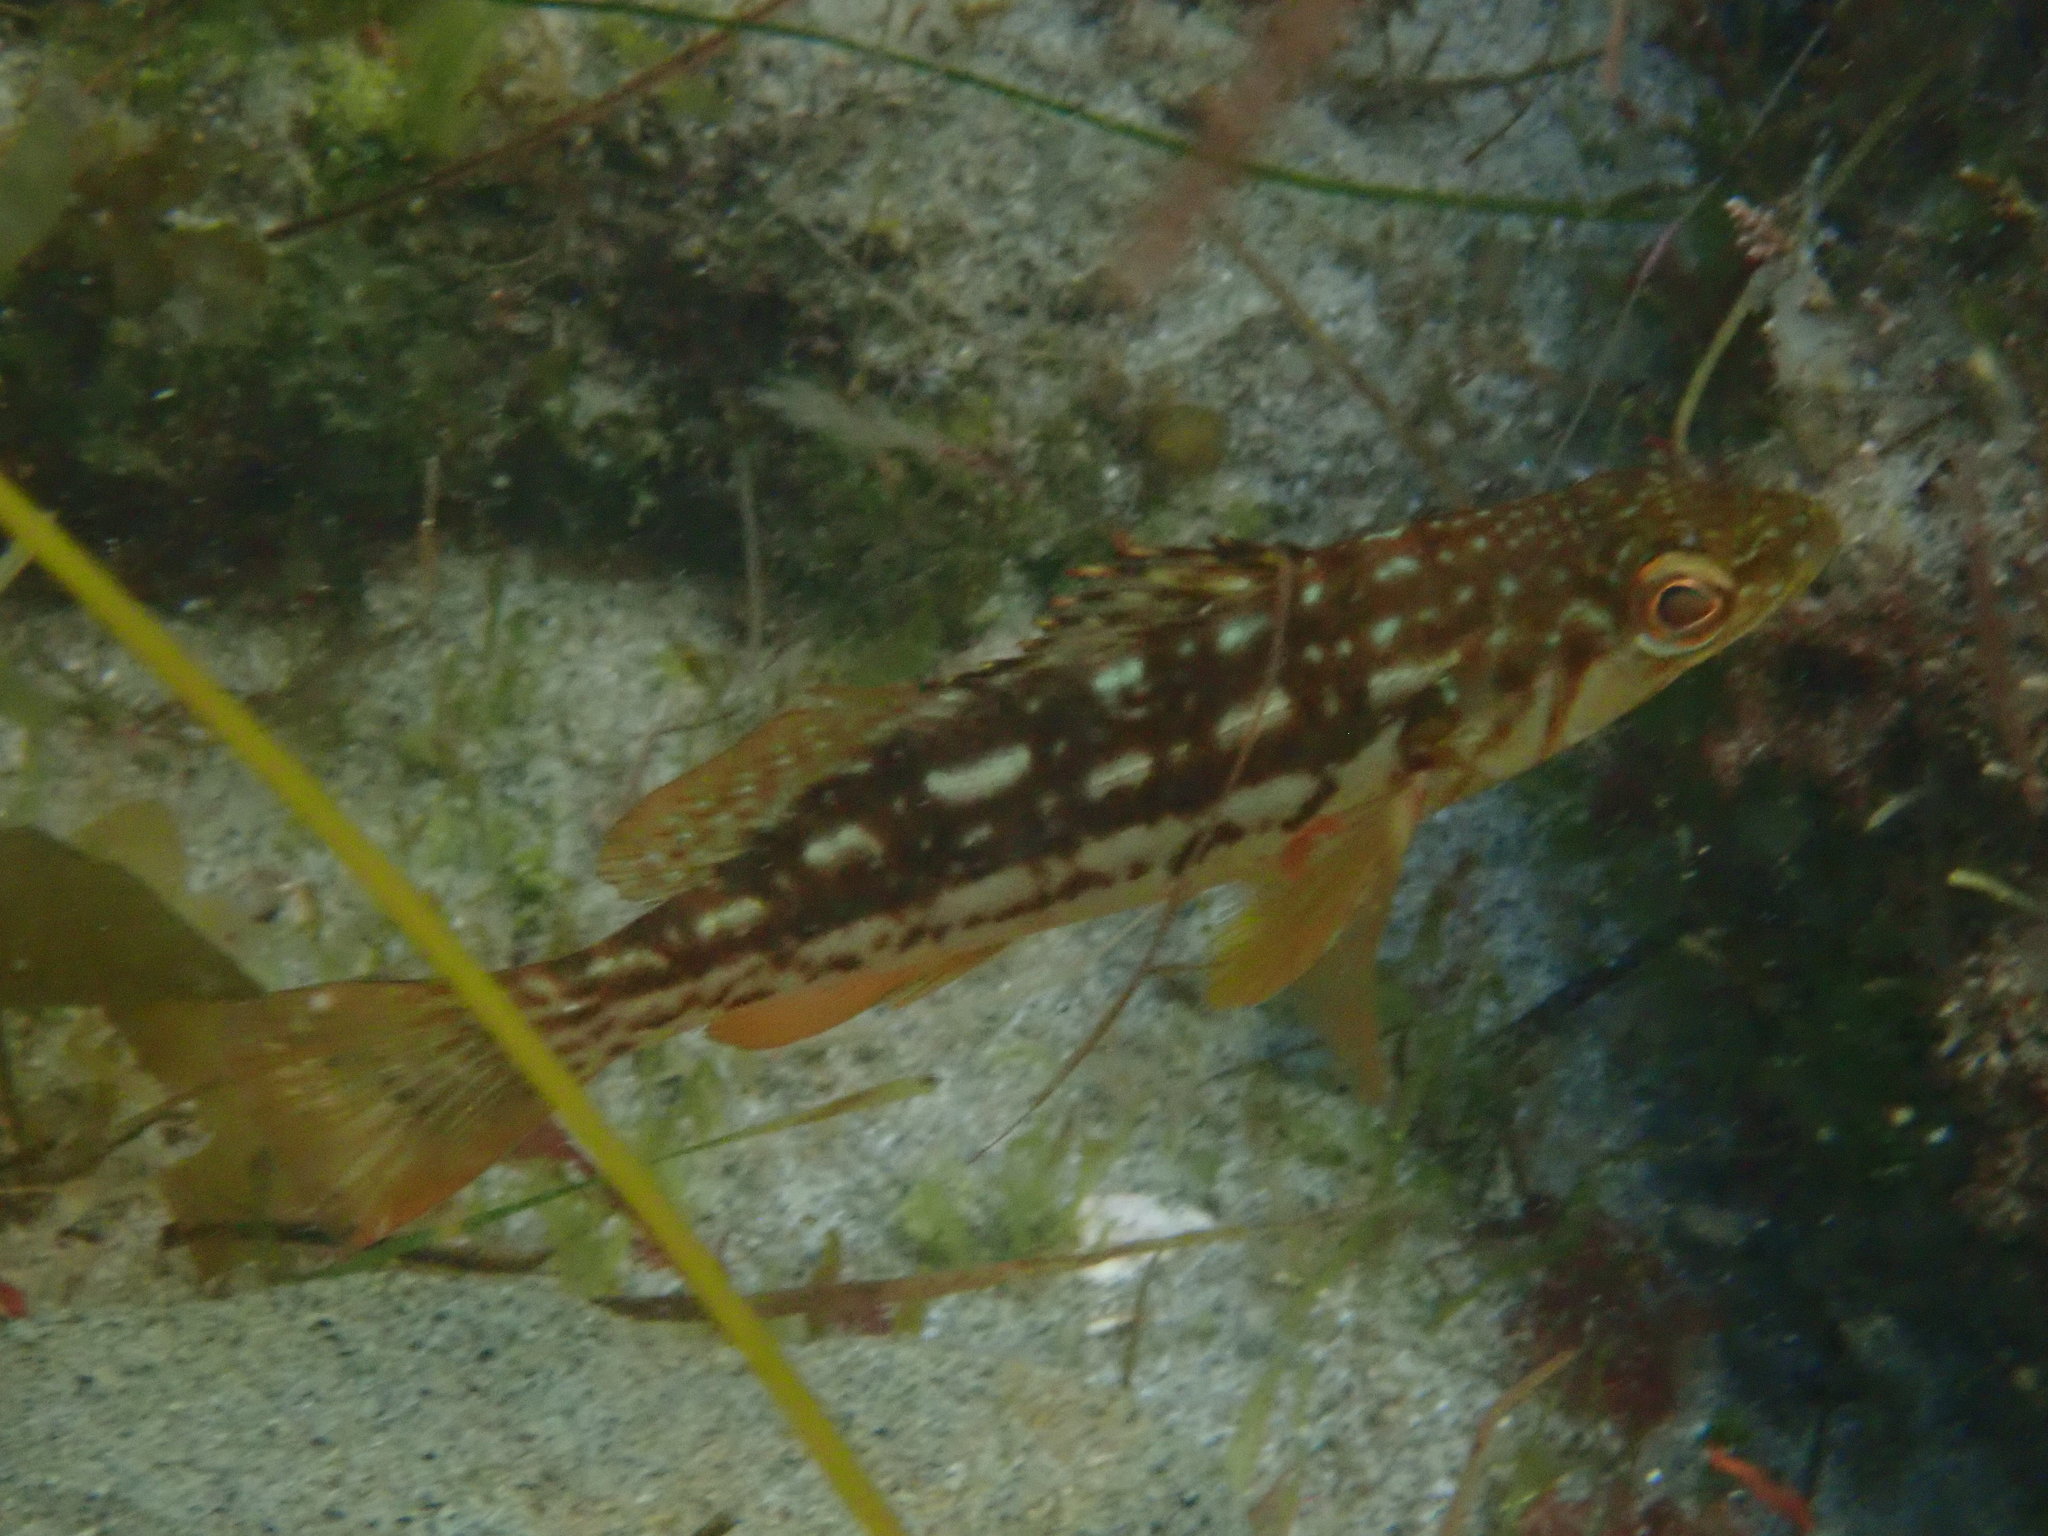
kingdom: Animalia
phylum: Chordata
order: Perciformes
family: Serranidae
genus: Paralabrax
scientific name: Paralabrax clathratus
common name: Kelp bass
